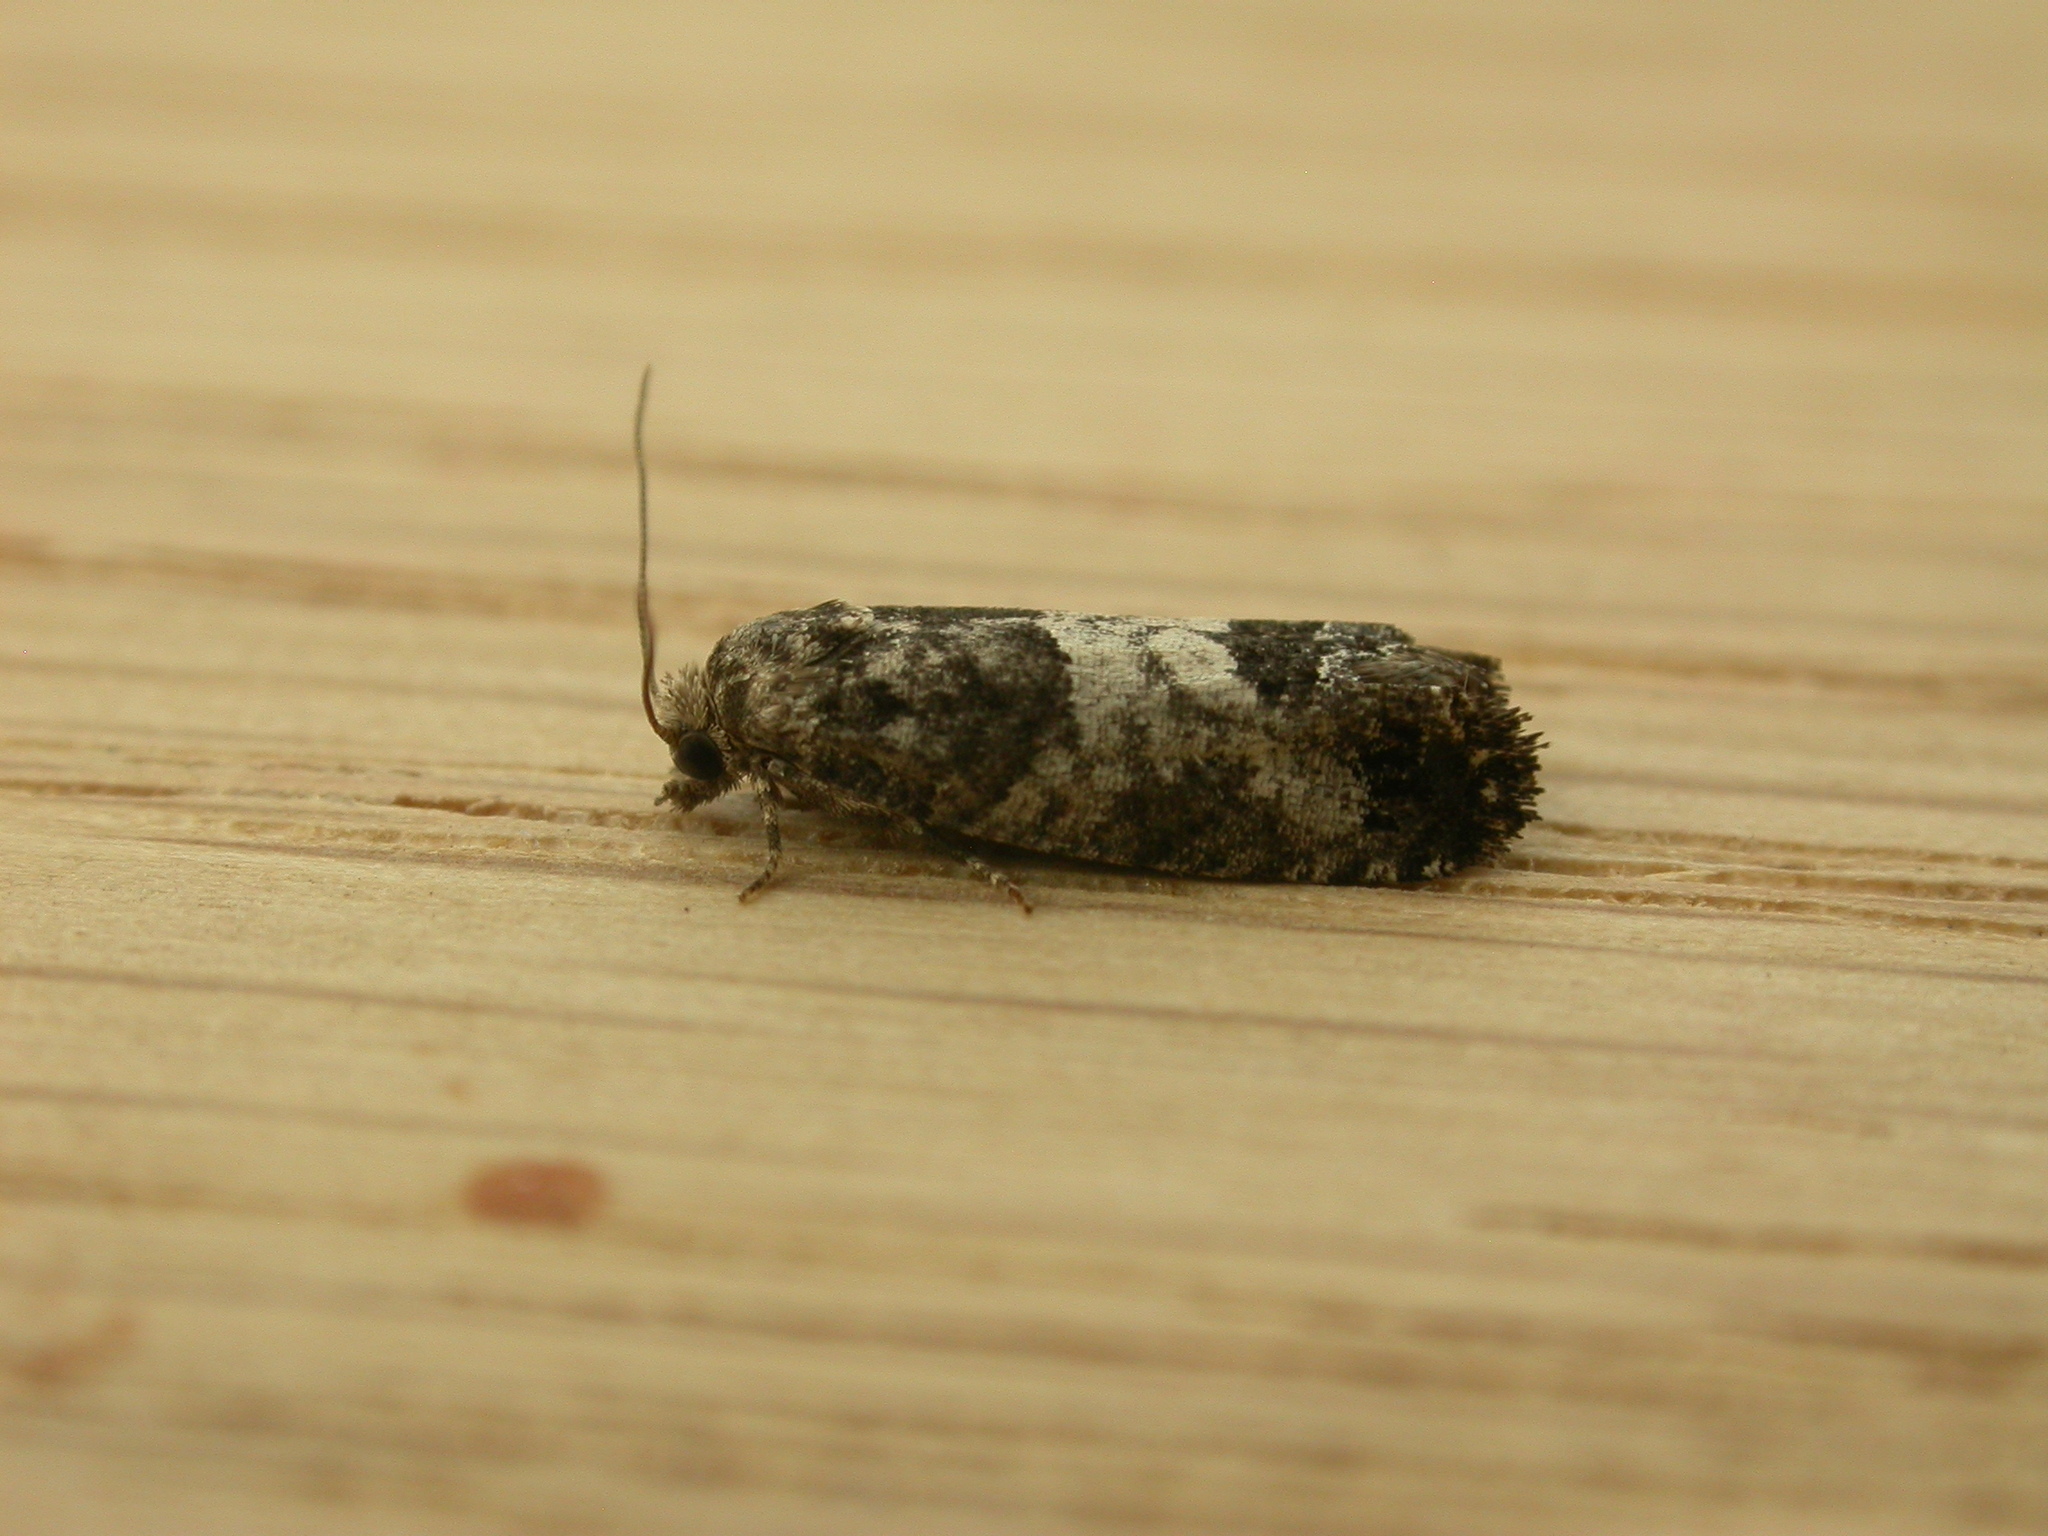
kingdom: Animalia
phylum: Arthropoda
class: Insecta
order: Lepidoptera
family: Tortricidae
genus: Spilonota
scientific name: Spilonota laricana
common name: Larch shoot tortricid moth
